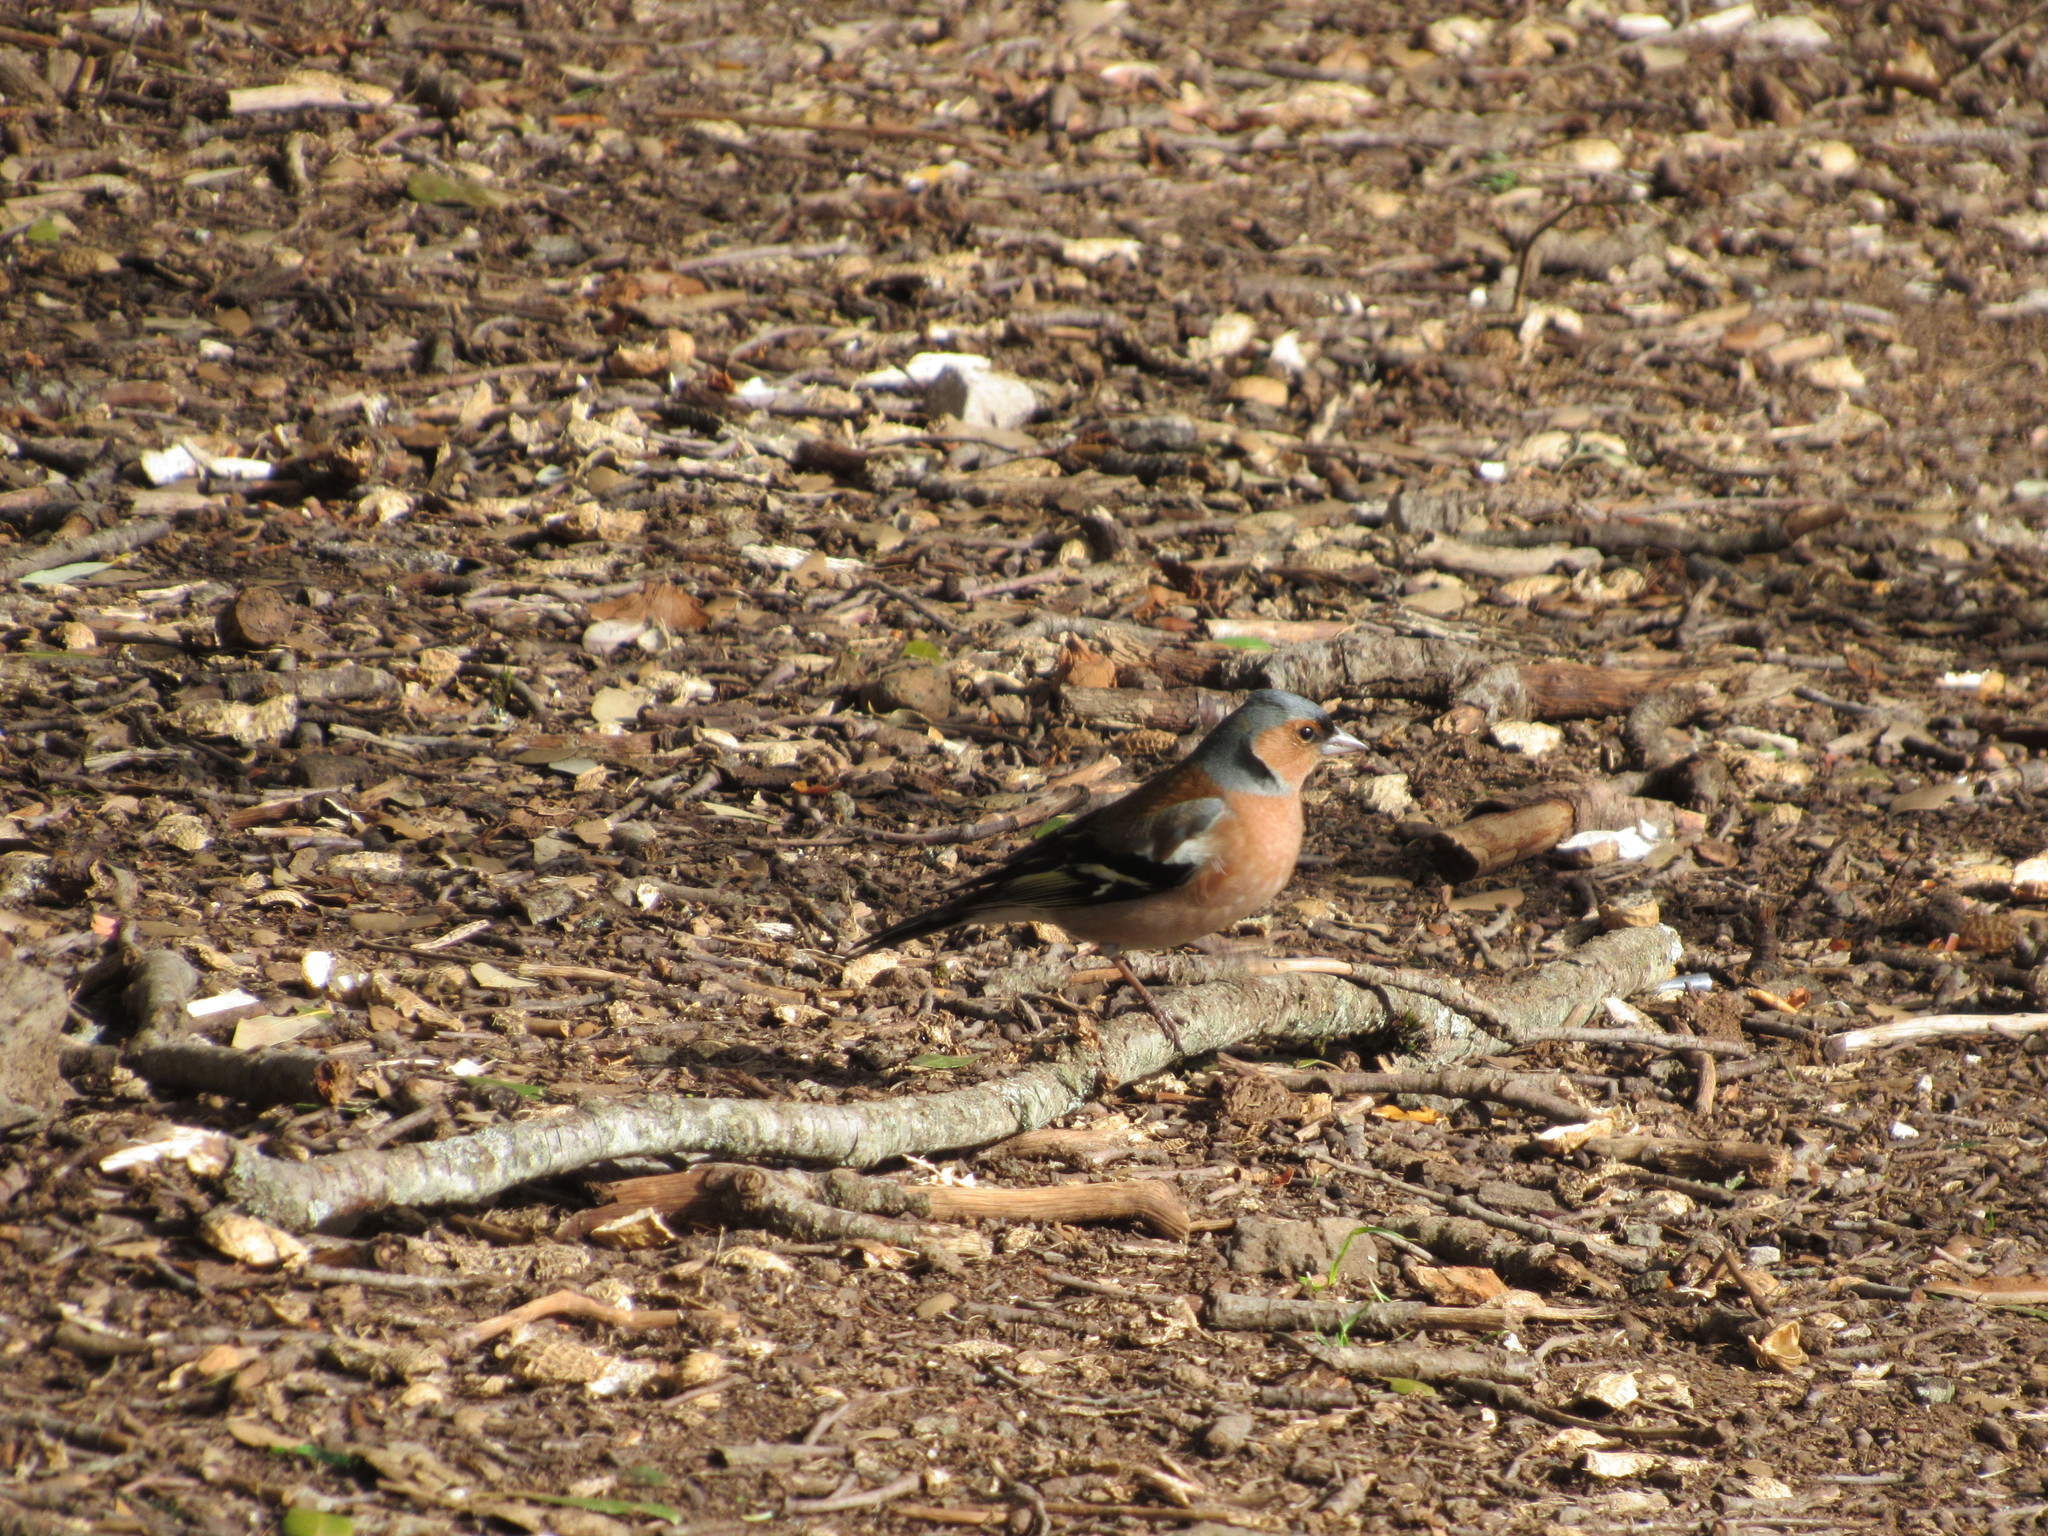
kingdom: Animalia
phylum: Chordata
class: Aves
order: Passeriformes
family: Fringillidae
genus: Fringilla
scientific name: Fringilla coelebs
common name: Common chaffinch
